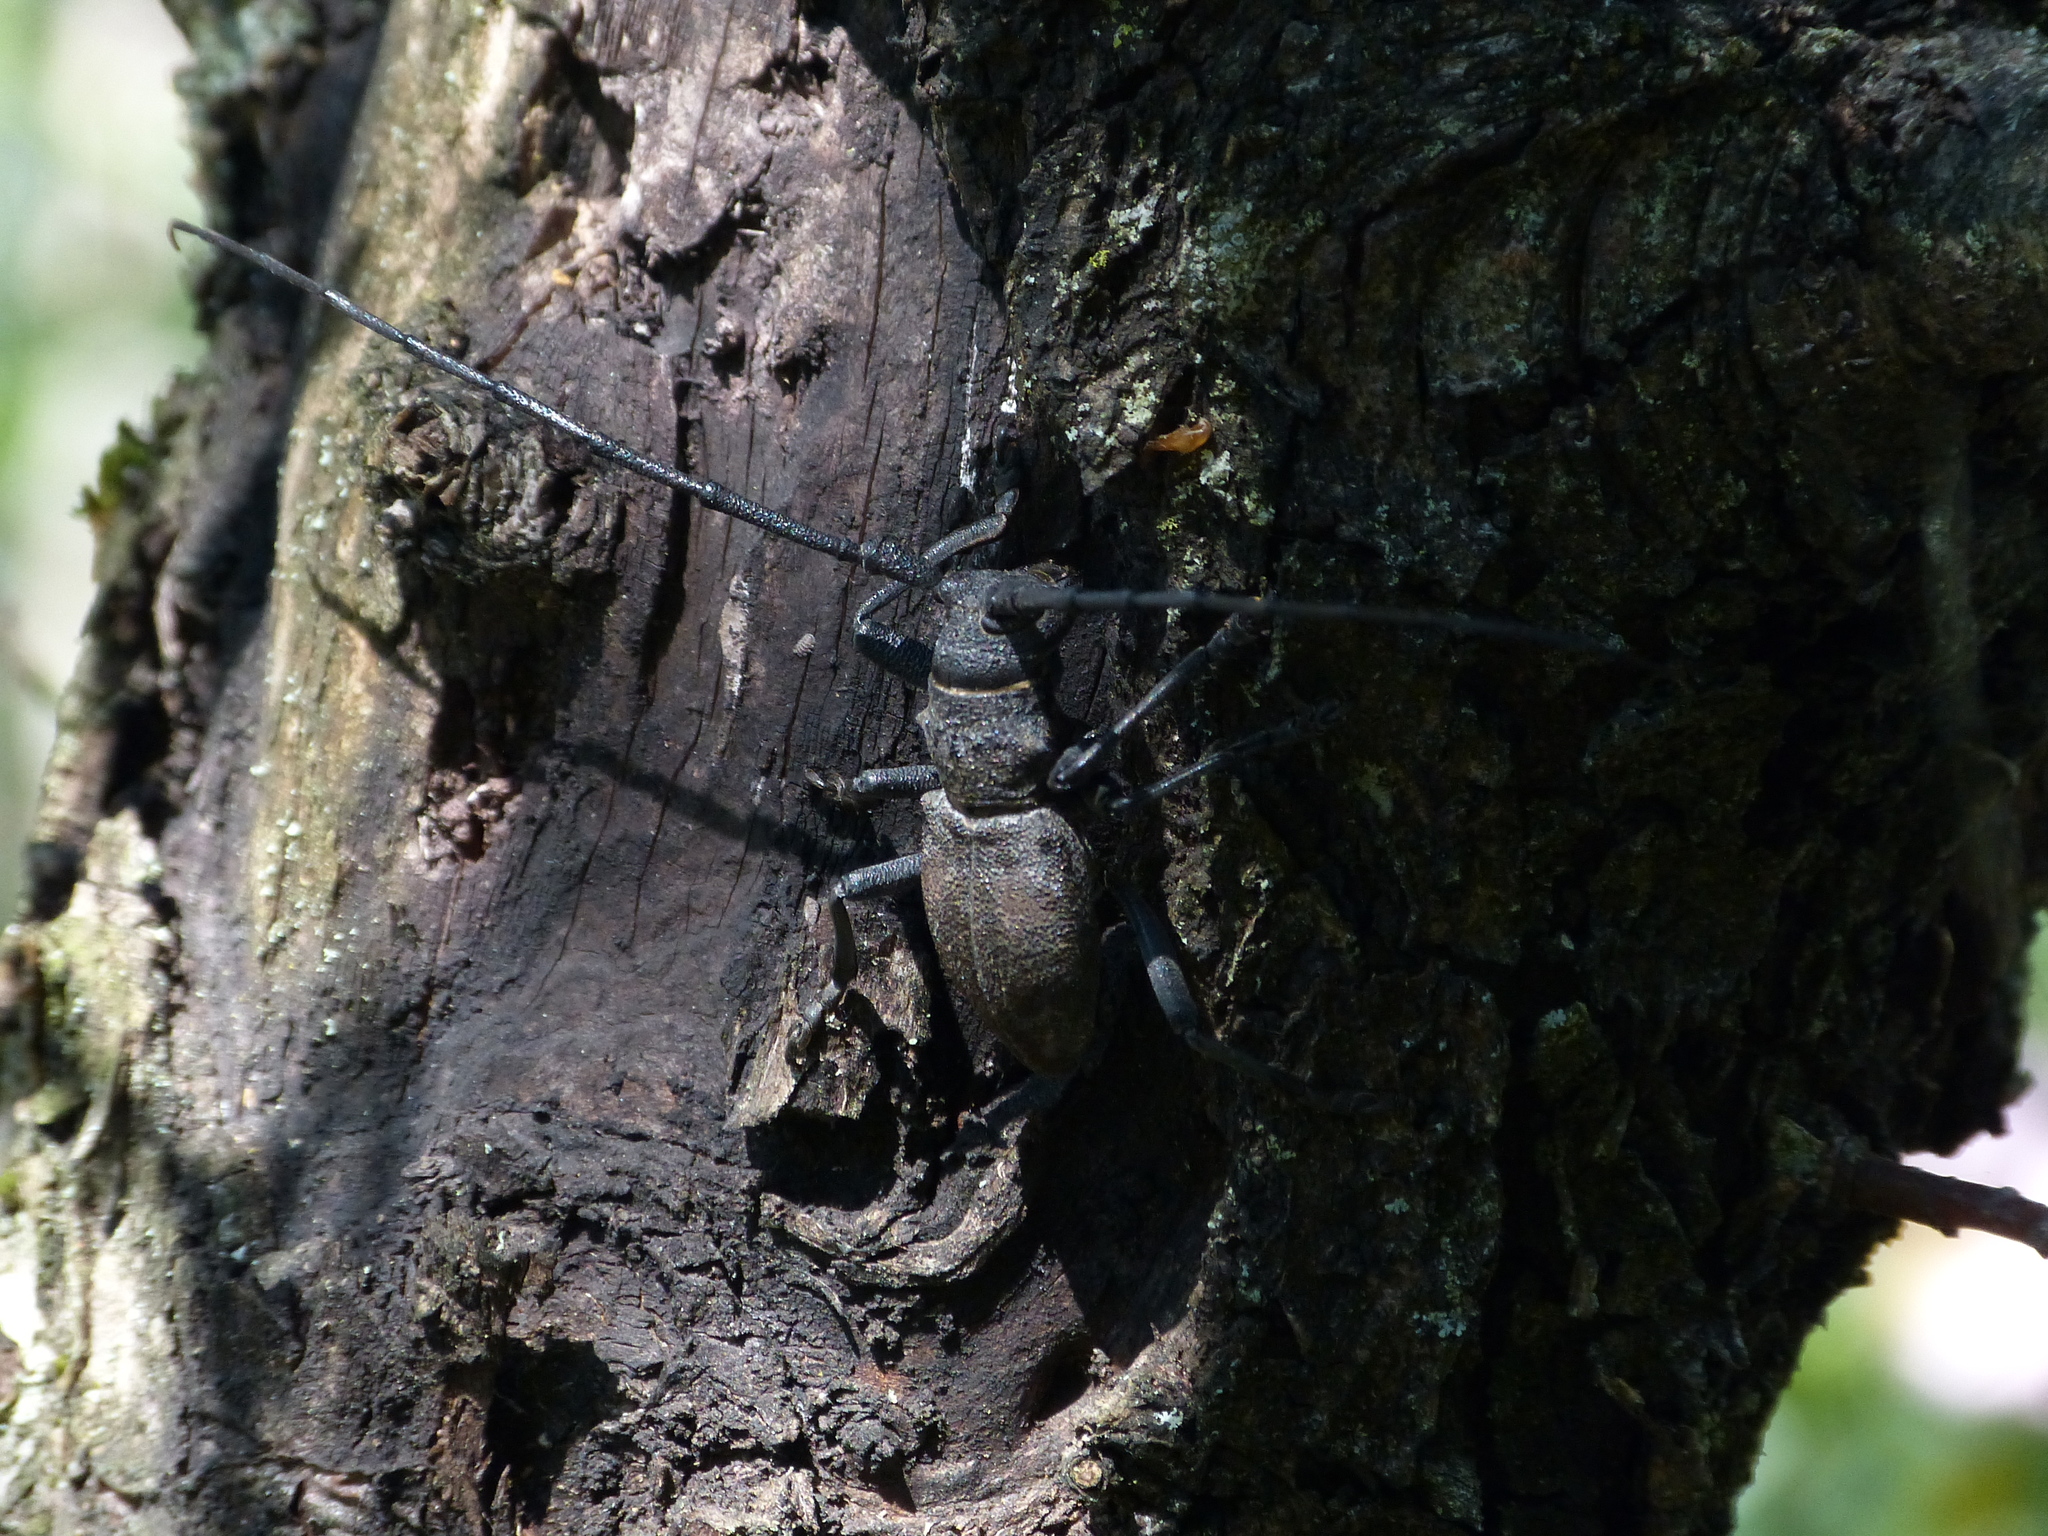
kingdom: Animalia
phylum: Arthropoda
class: Insecta
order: Coleoptera
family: Cerambycidae
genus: Morimus
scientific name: Morimus asper
